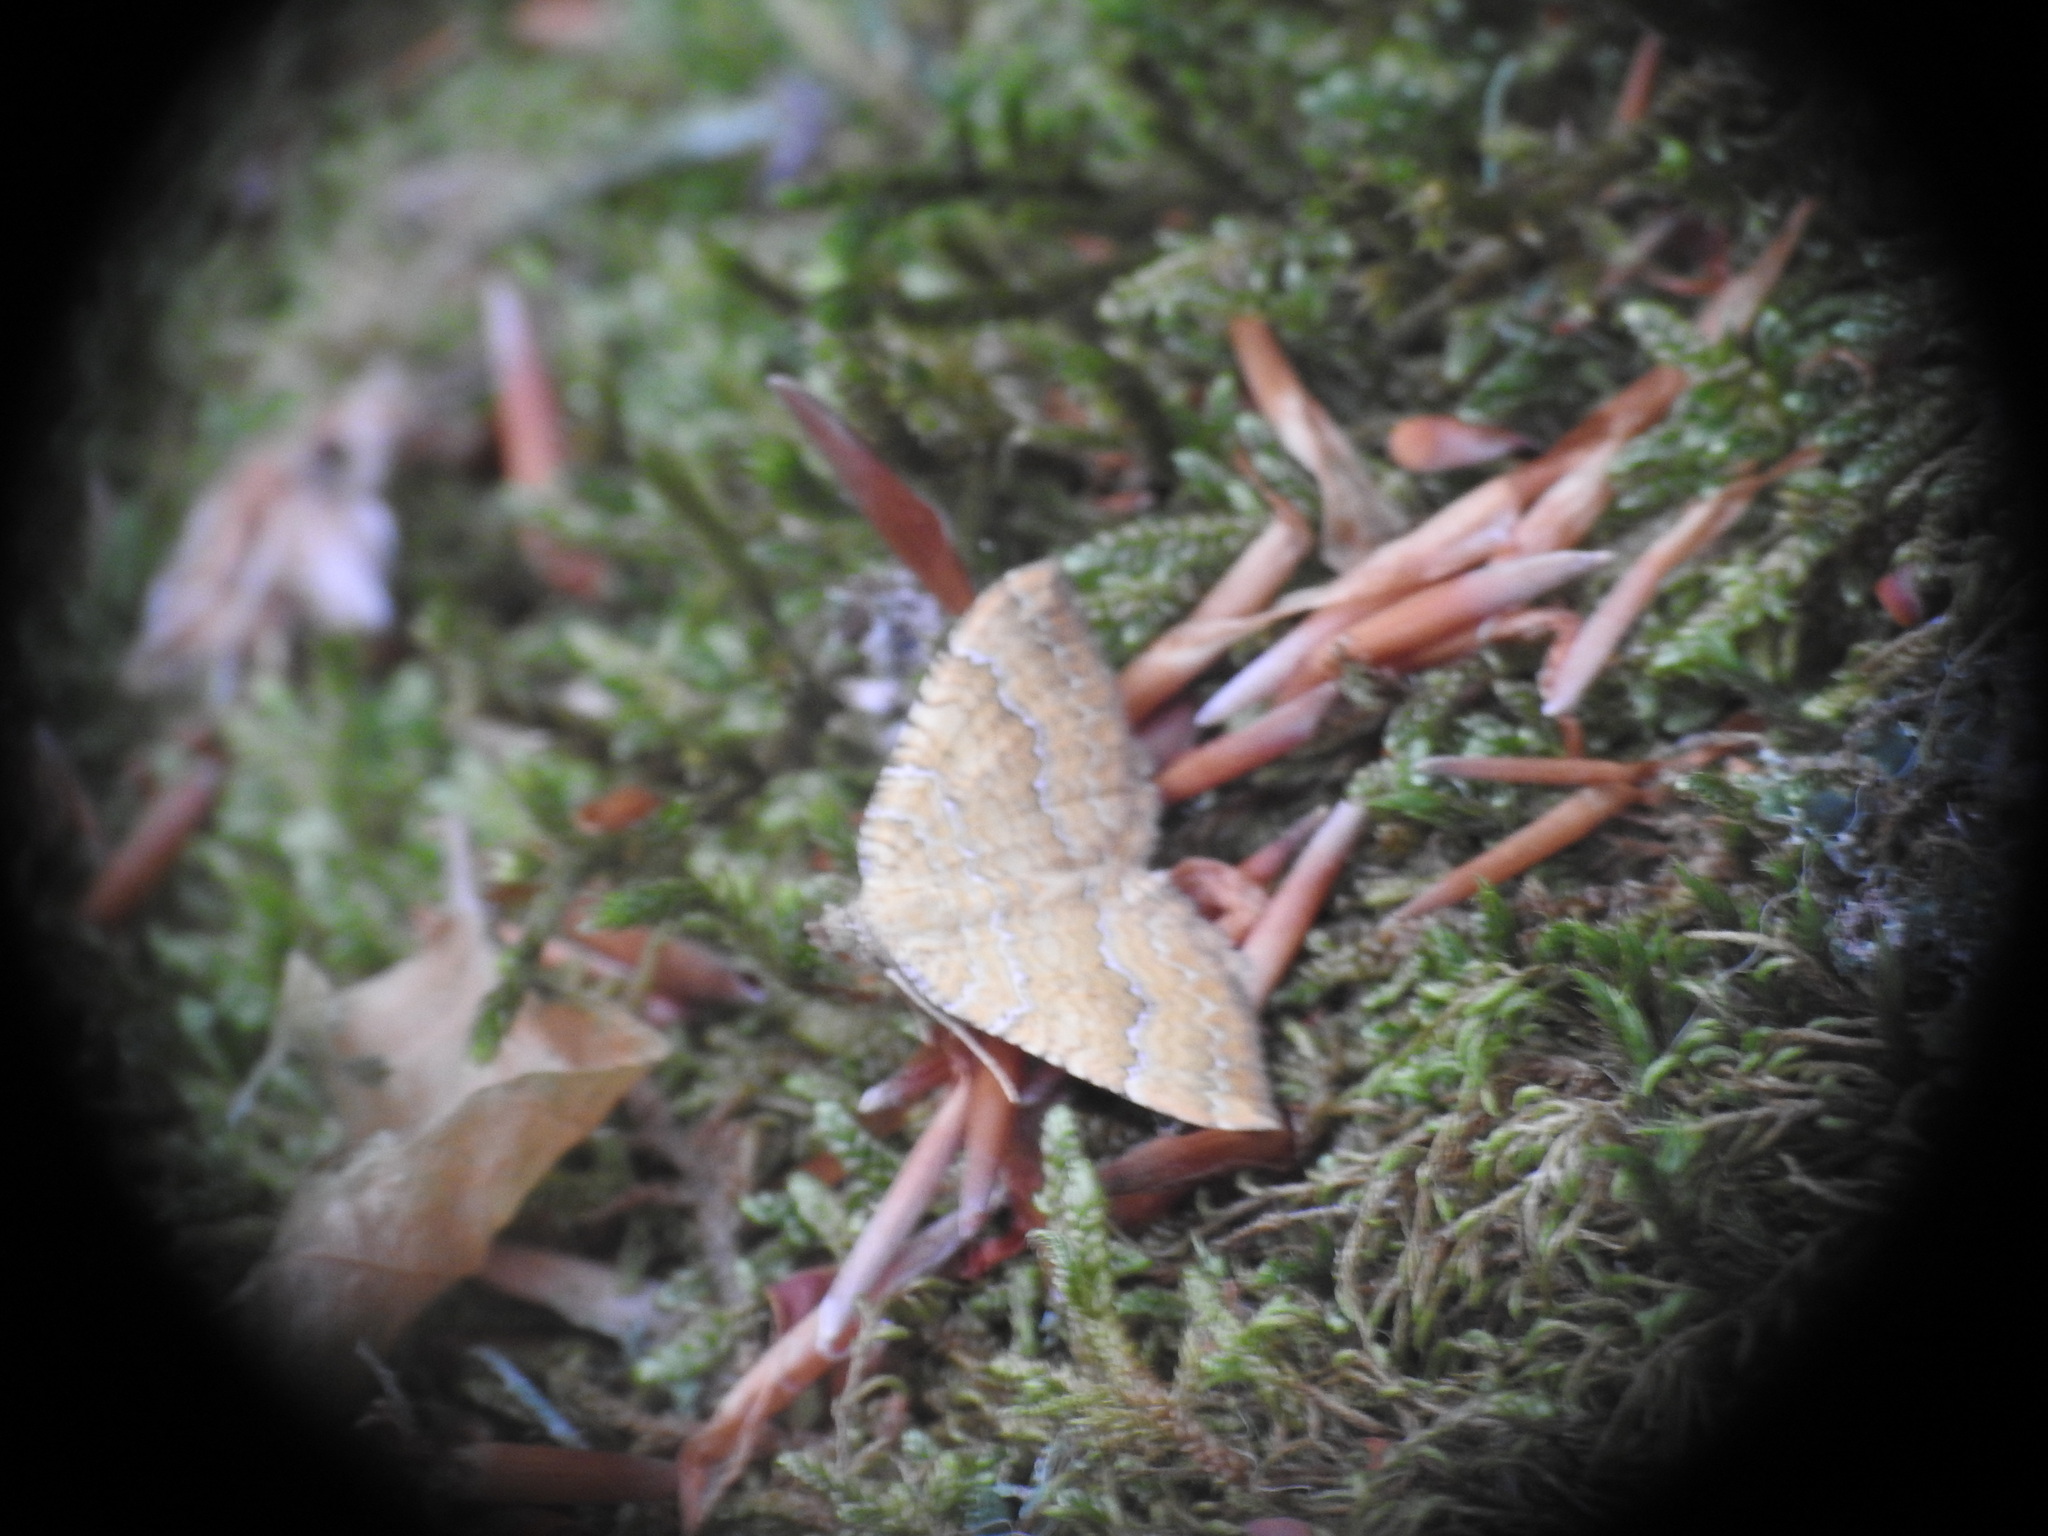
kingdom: Animalia
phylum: Arthropoda
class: Insecta
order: Lepidoptera
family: Geometridae
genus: Camptogramma
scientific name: Camptogramma bilineata
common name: Yellow shell
